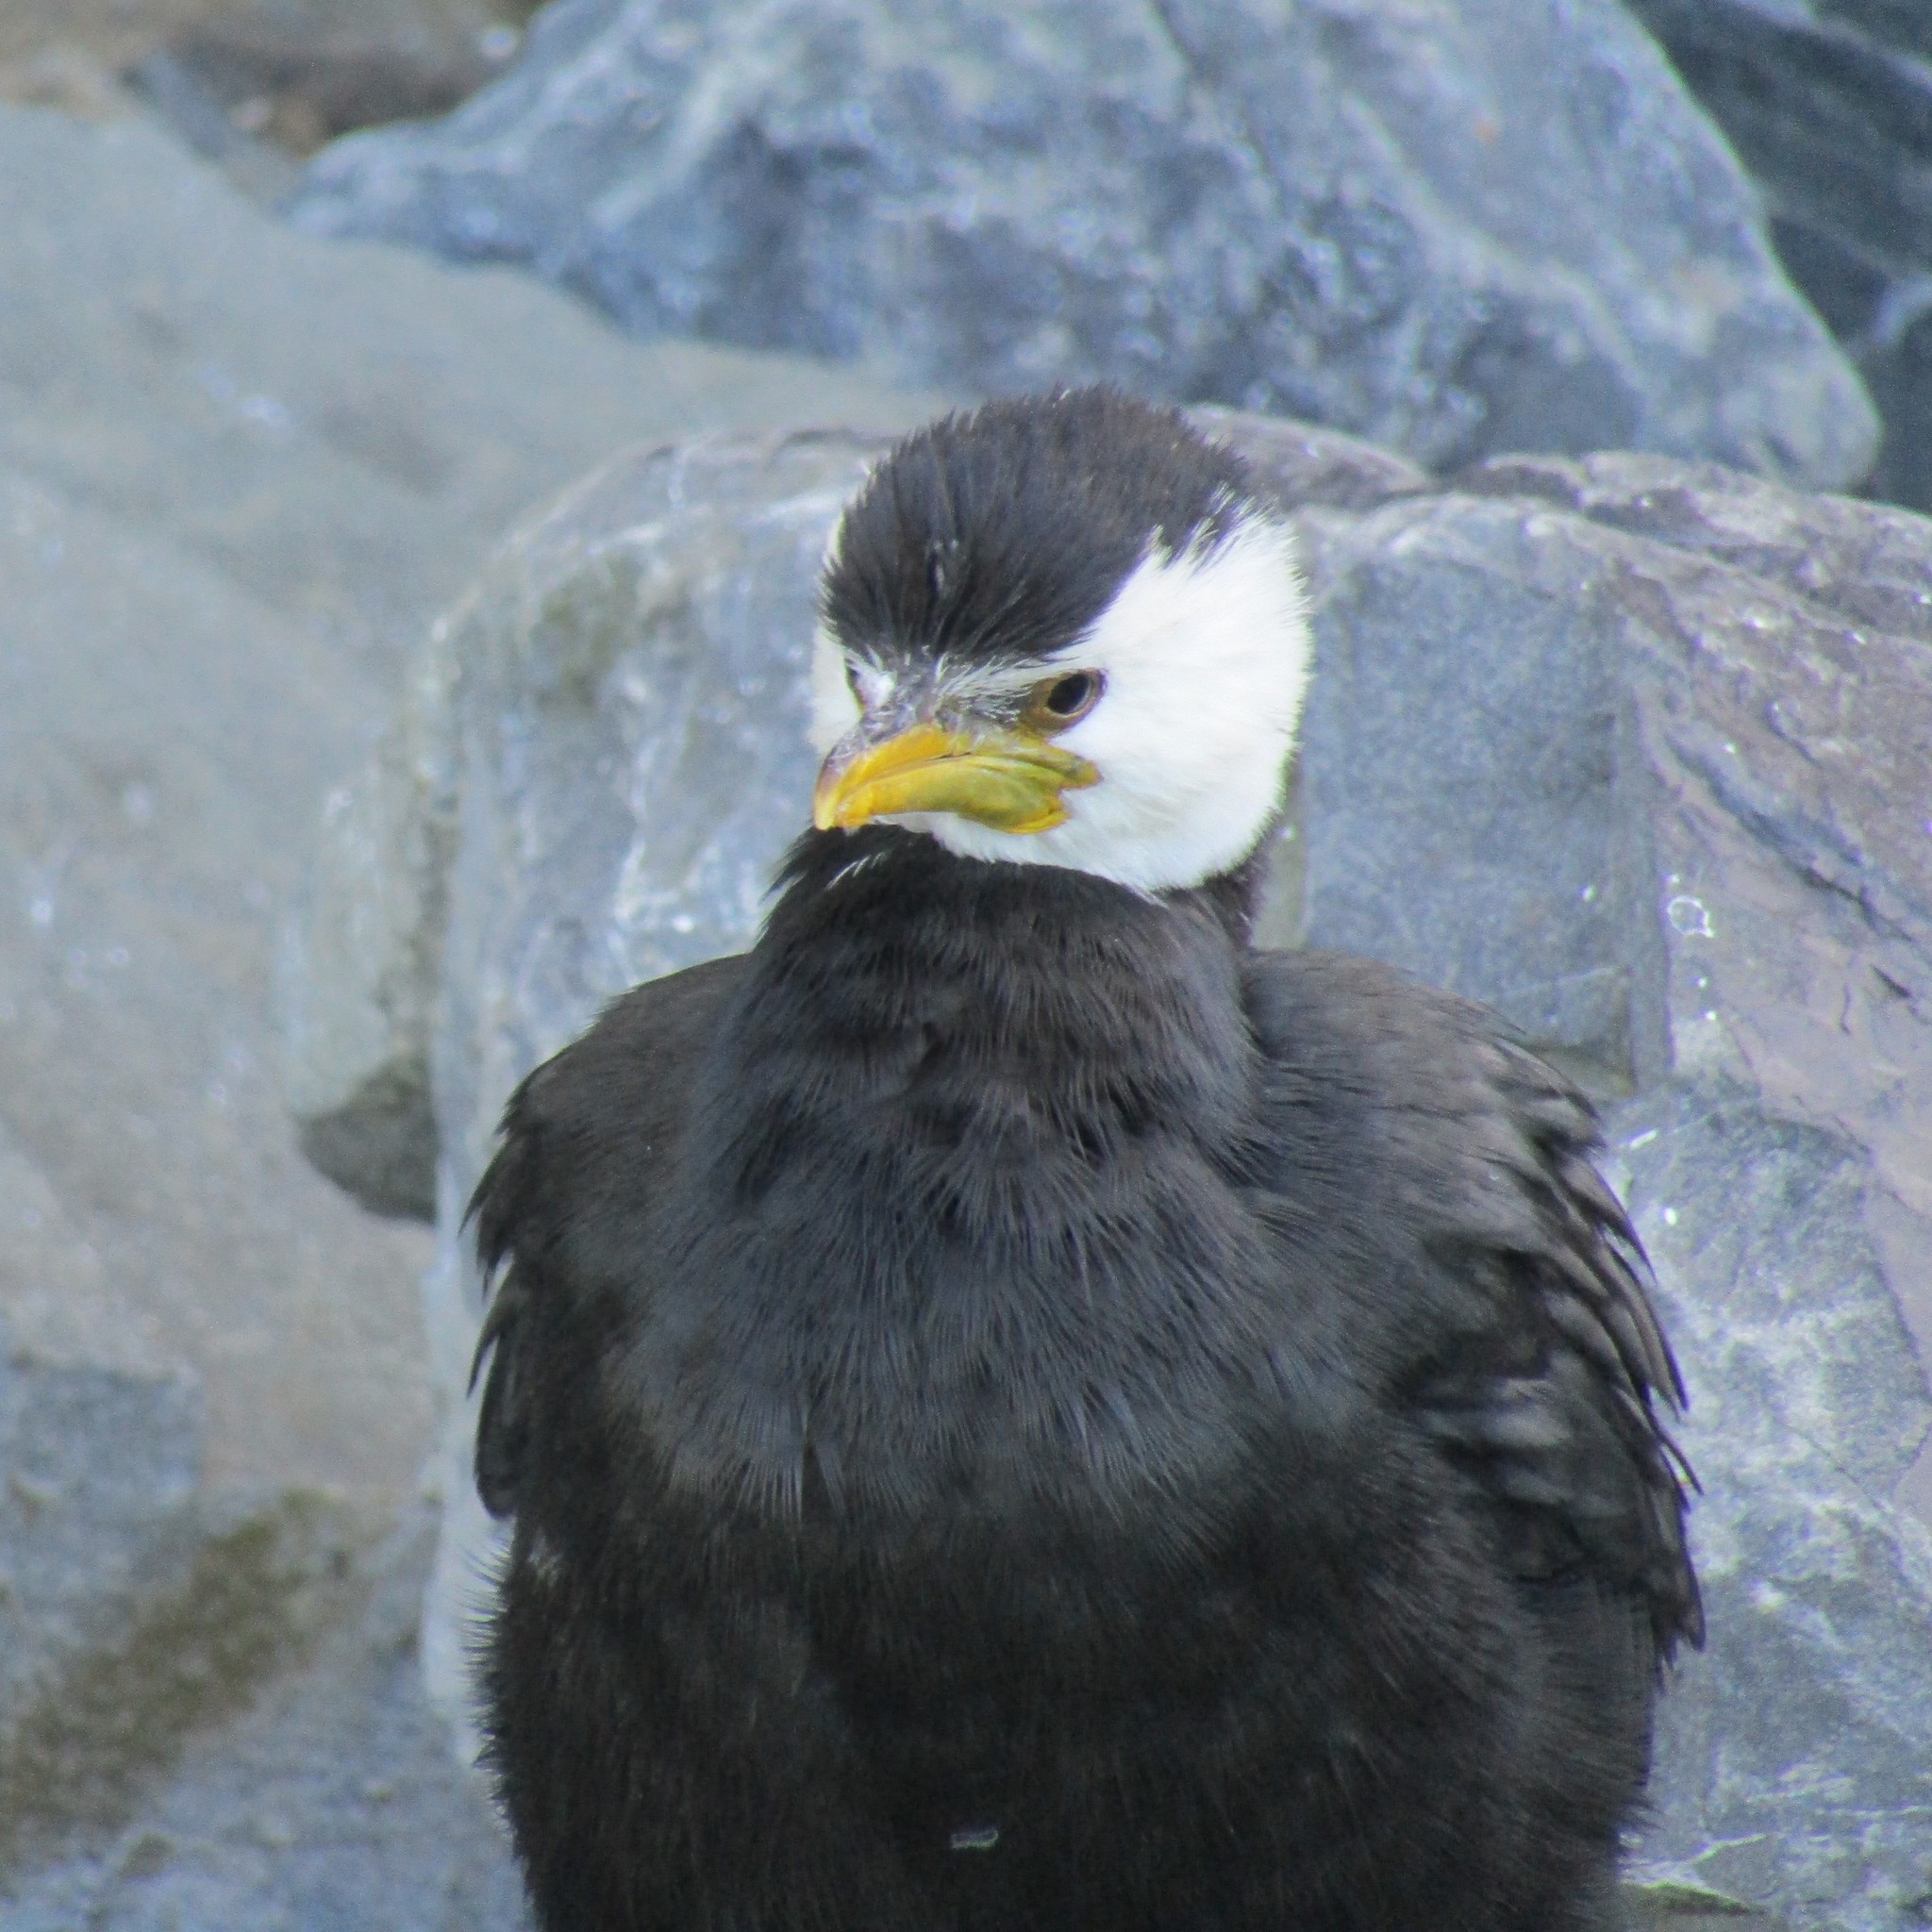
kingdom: Animalia
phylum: Chordata
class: Aves
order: Suliformes
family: Phalacrocoracidae
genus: Microcarbo
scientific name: Microcarbo melanoleucos
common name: Little pied cormorant
